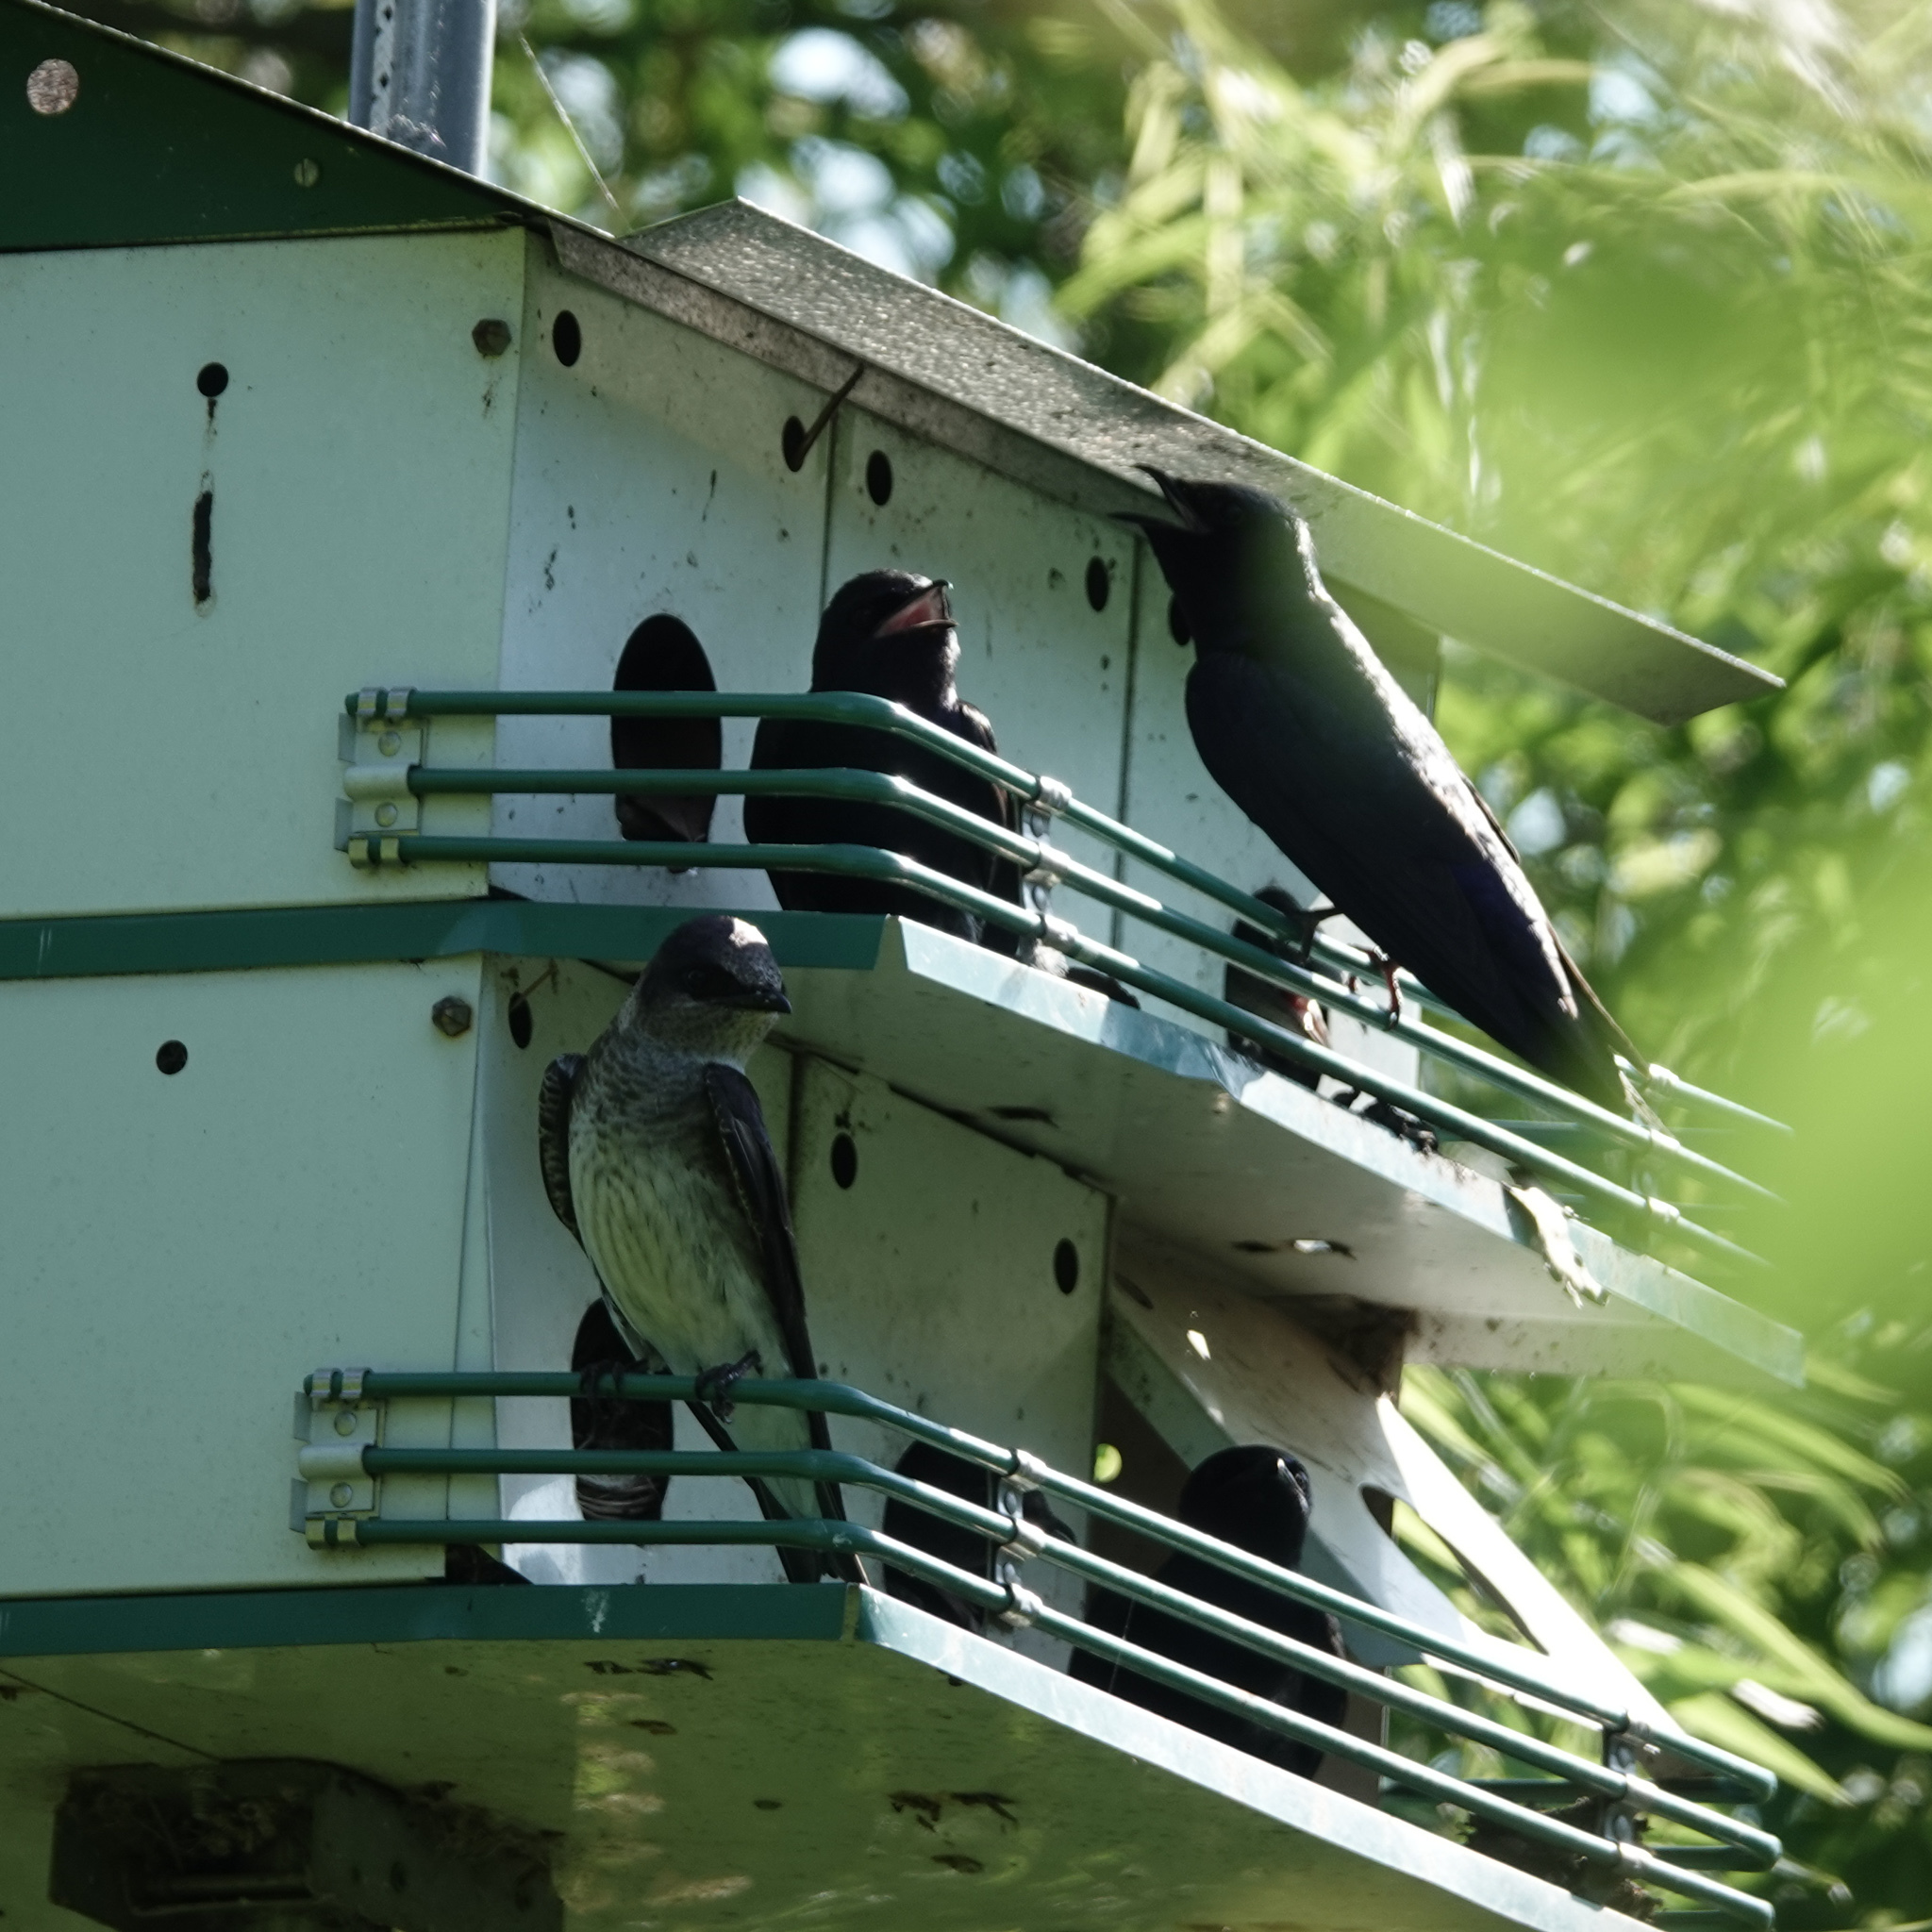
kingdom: Animalia
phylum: Chordata
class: Aves
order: Passeriformes
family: Hirundinidae
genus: Progne
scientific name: Progne subis
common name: Purple martin
